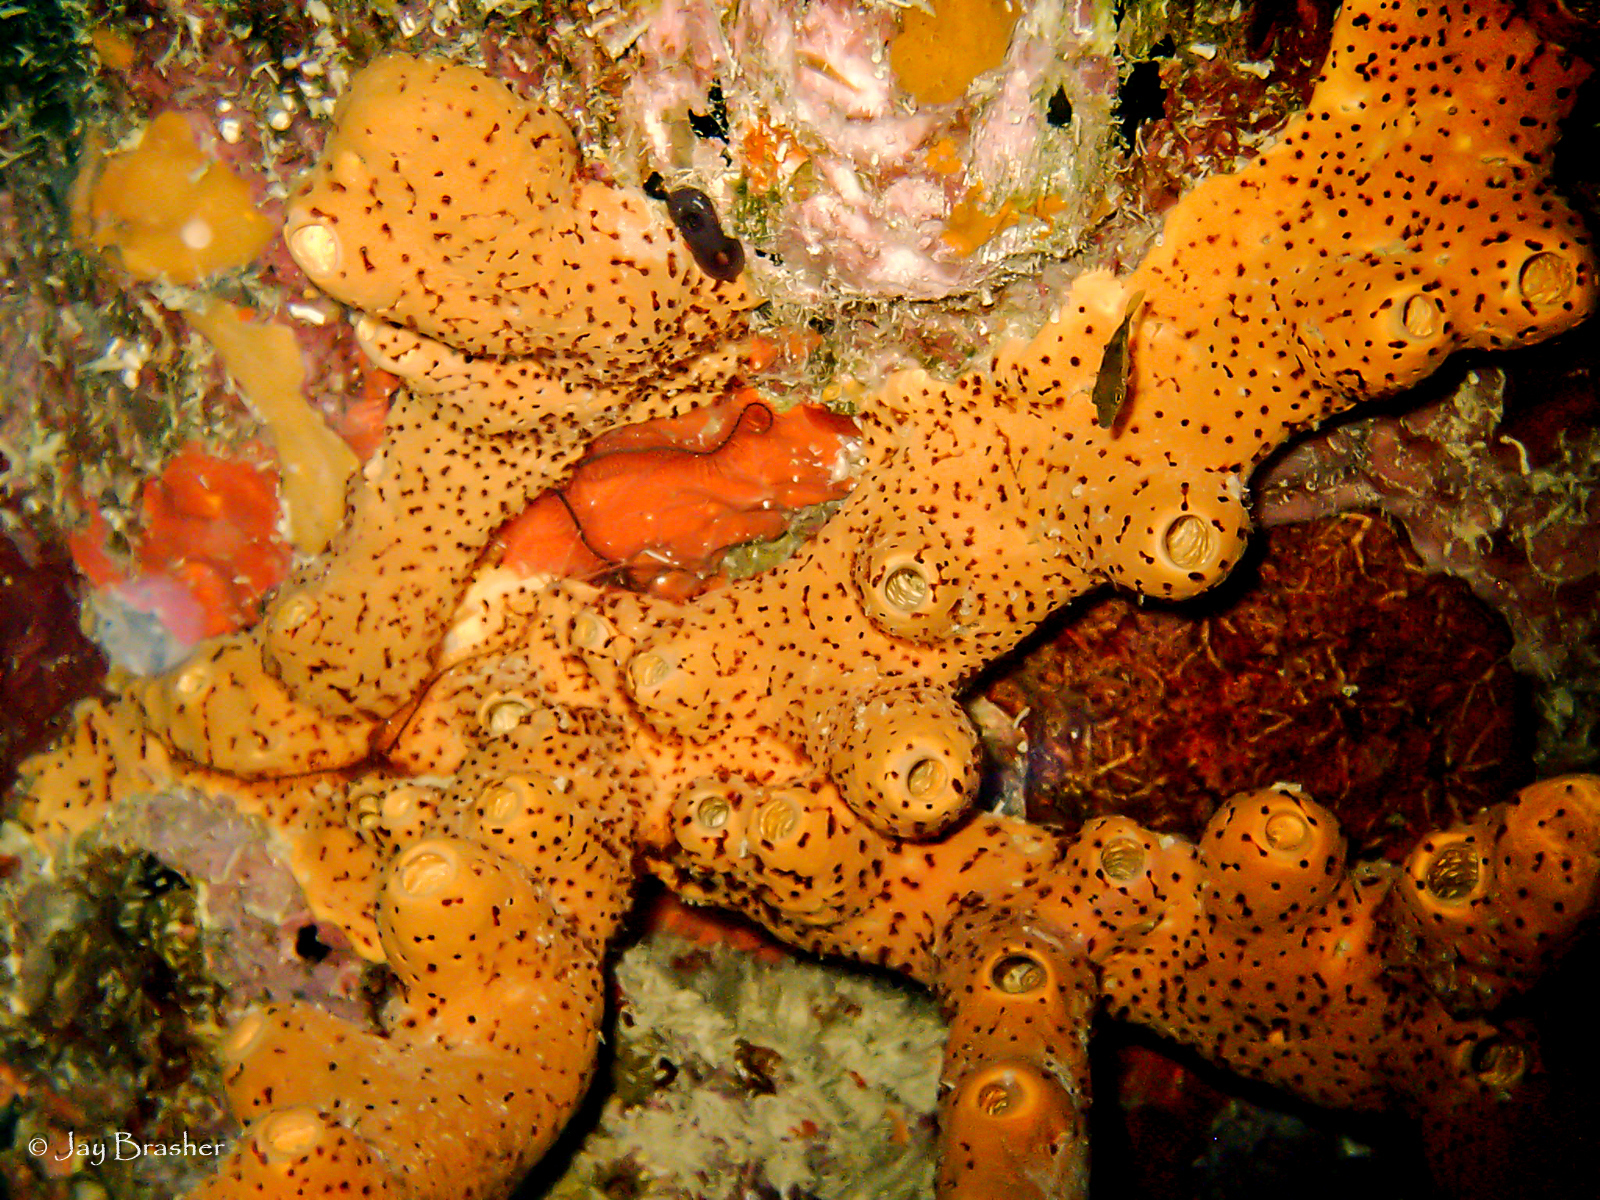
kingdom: Animalia
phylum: Cnidaria
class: Anthozoa
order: Zoantharia
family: Parazoanthidae
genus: Bergia
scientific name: Bergia puertoricense
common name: Maroon sponge zoanthid
